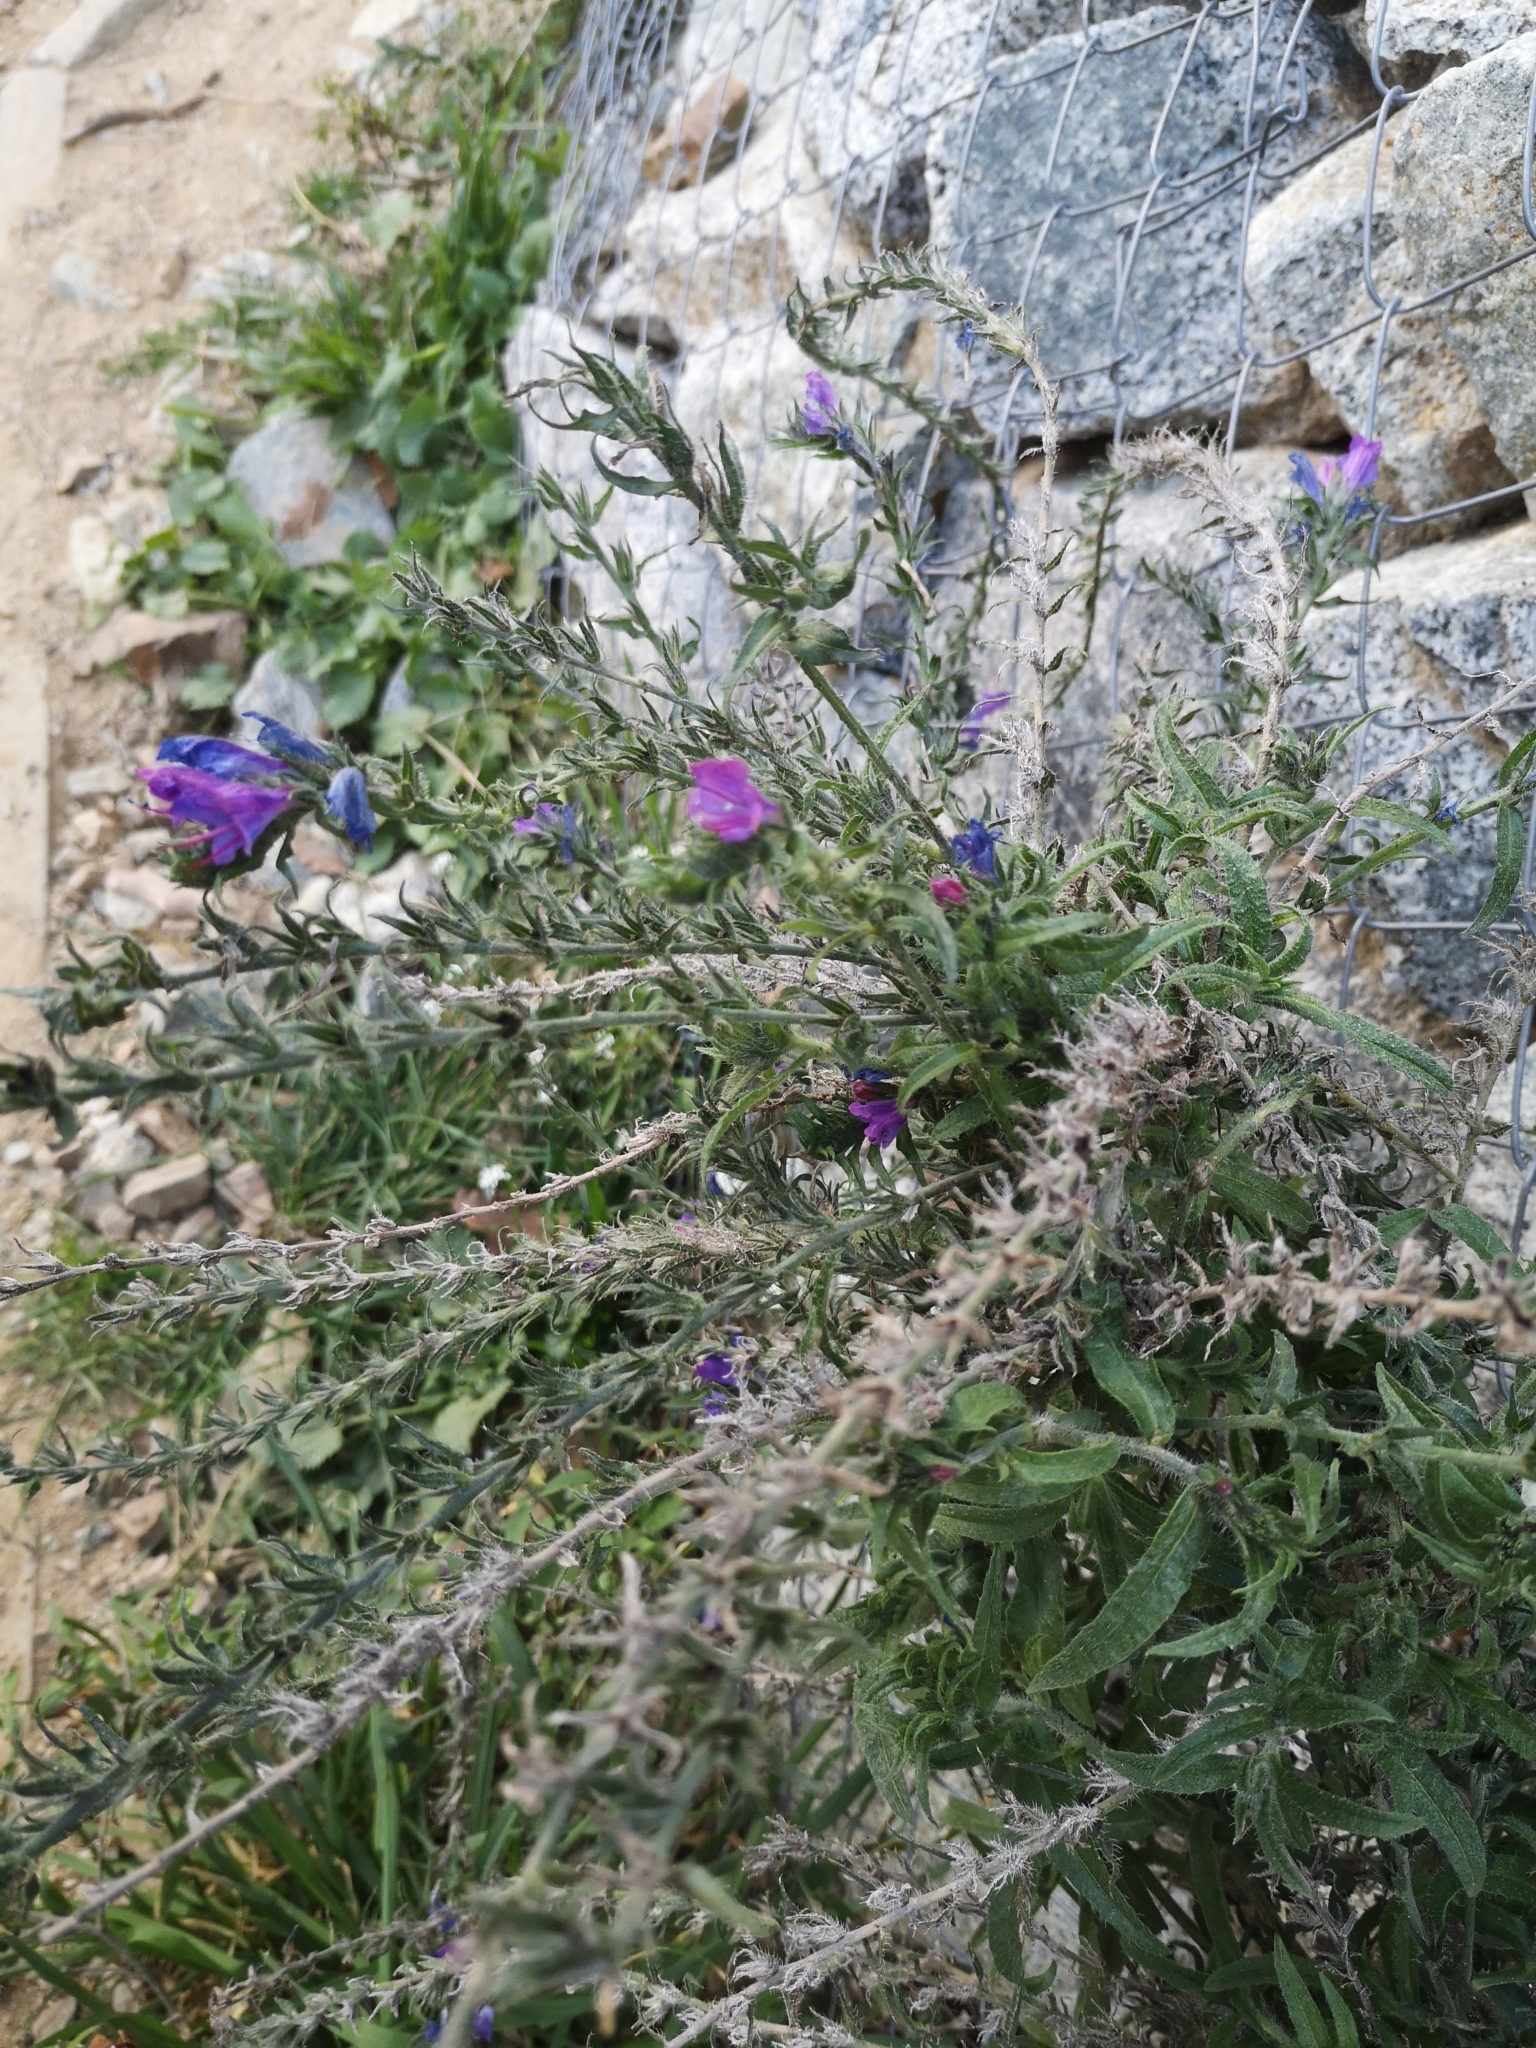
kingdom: Plantae
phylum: Tracheophyta
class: Magnoliopsida
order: Boraginales
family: Boraginaceae
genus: Echium
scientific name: Echium vulgare
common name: Common viper's bugloss
